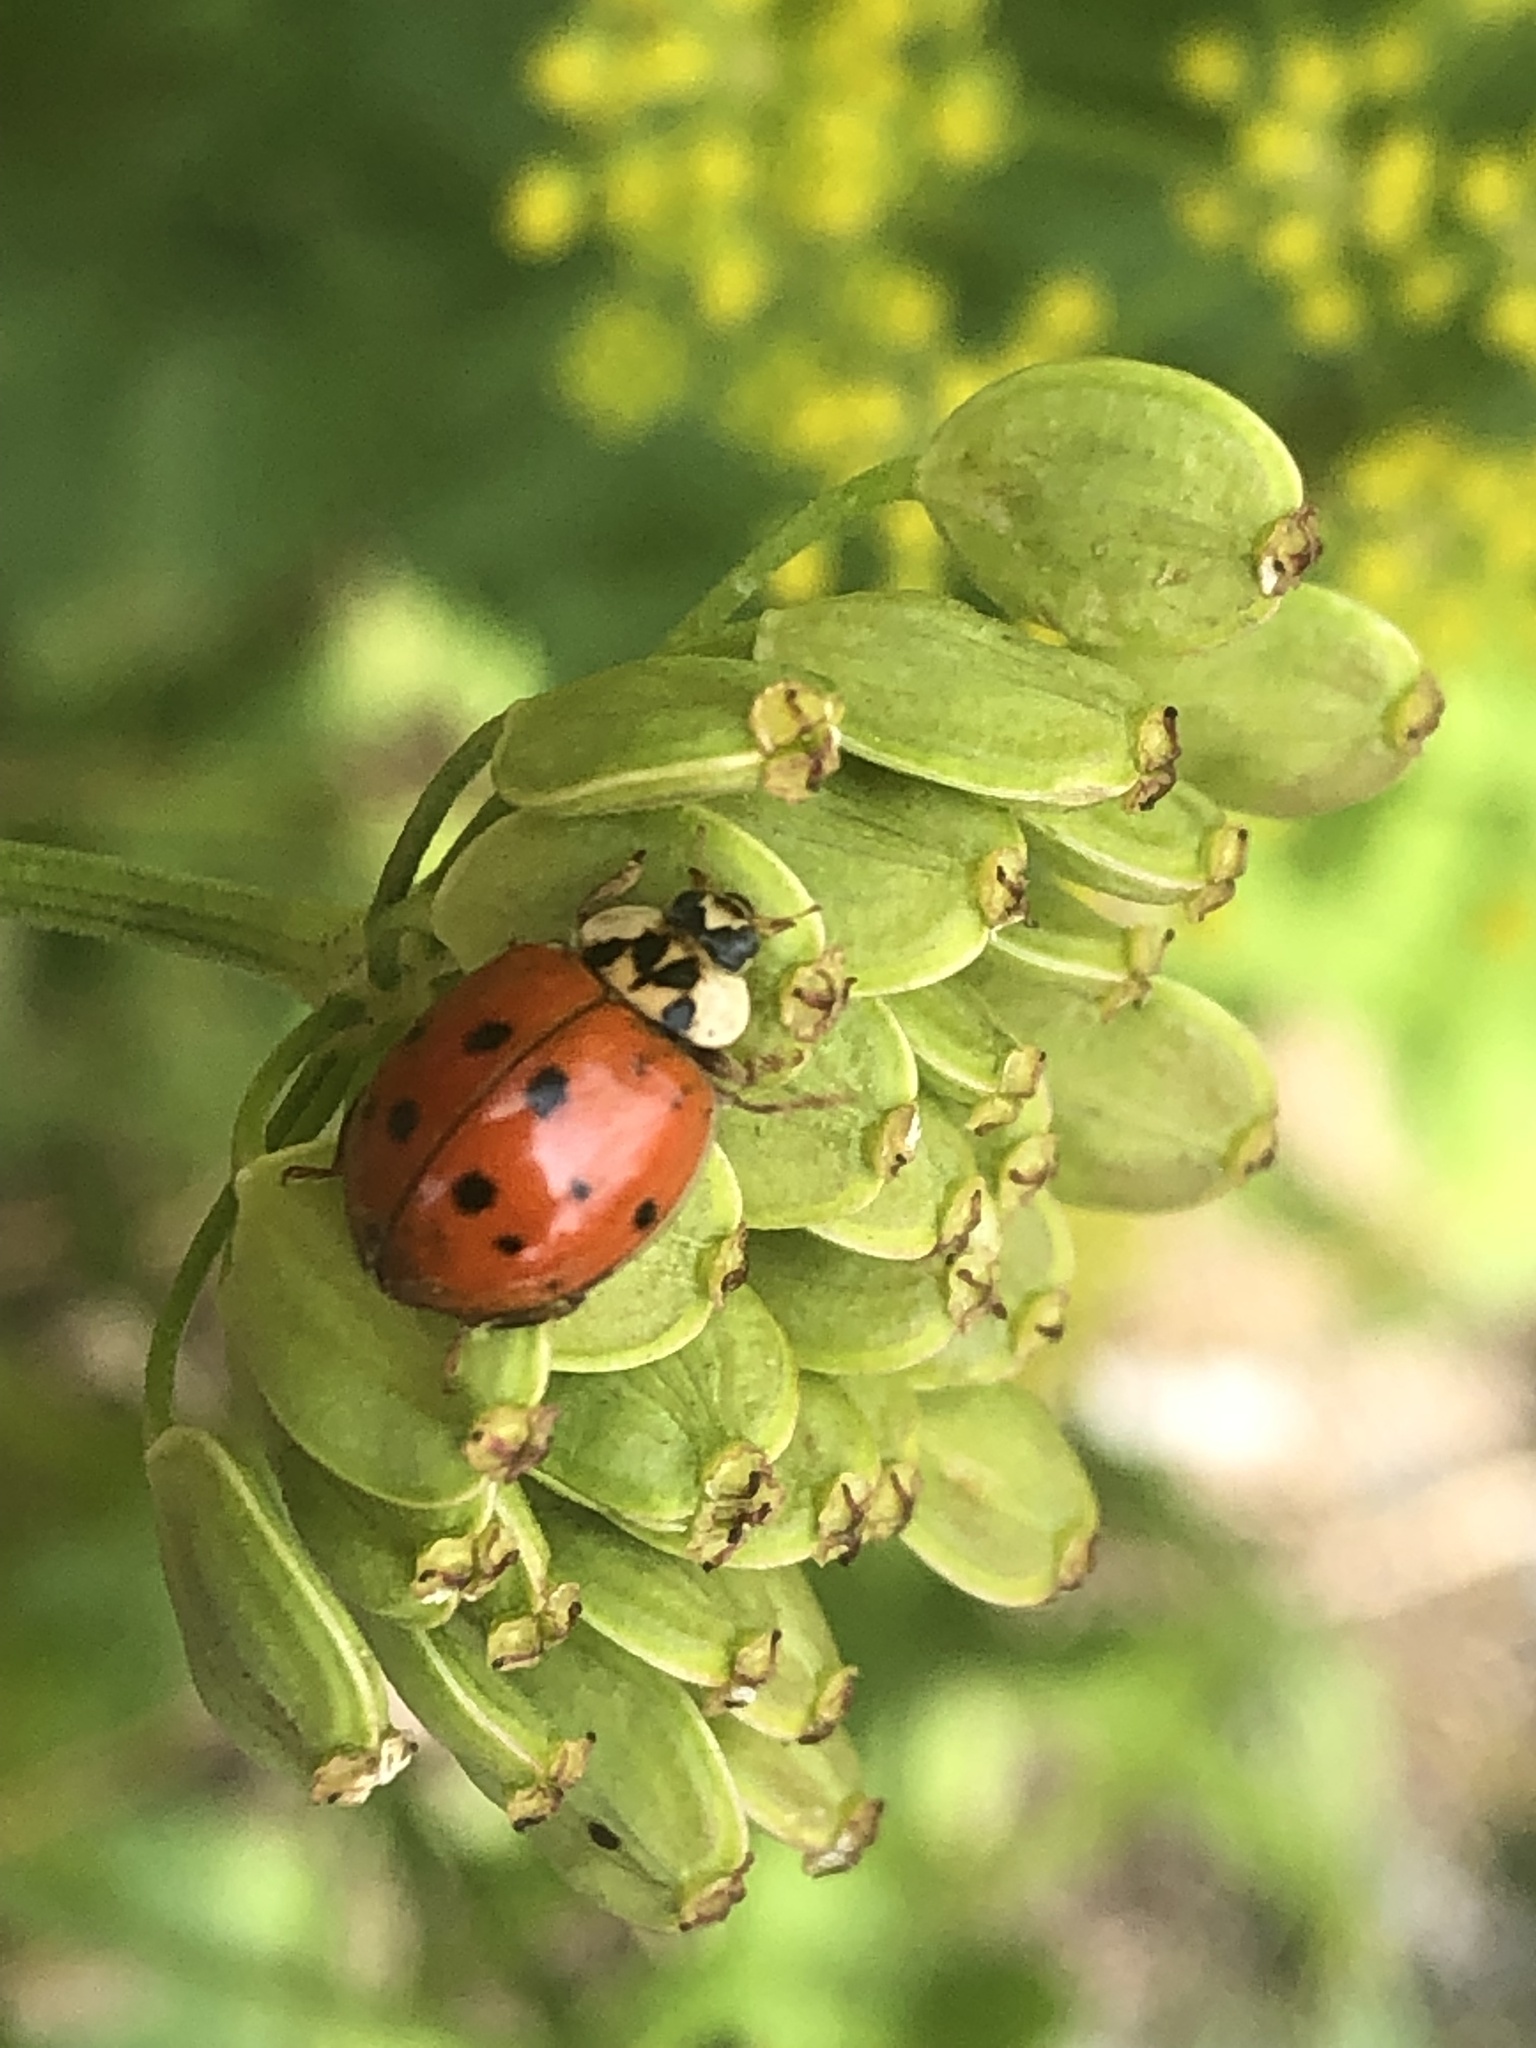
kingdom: Animalia
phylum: Arthropoda
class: Insecta
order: Coleoptera
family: Coccinellidae
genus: Harmonia
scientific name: Harmonia axyridis
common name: Harlequin ladybird
